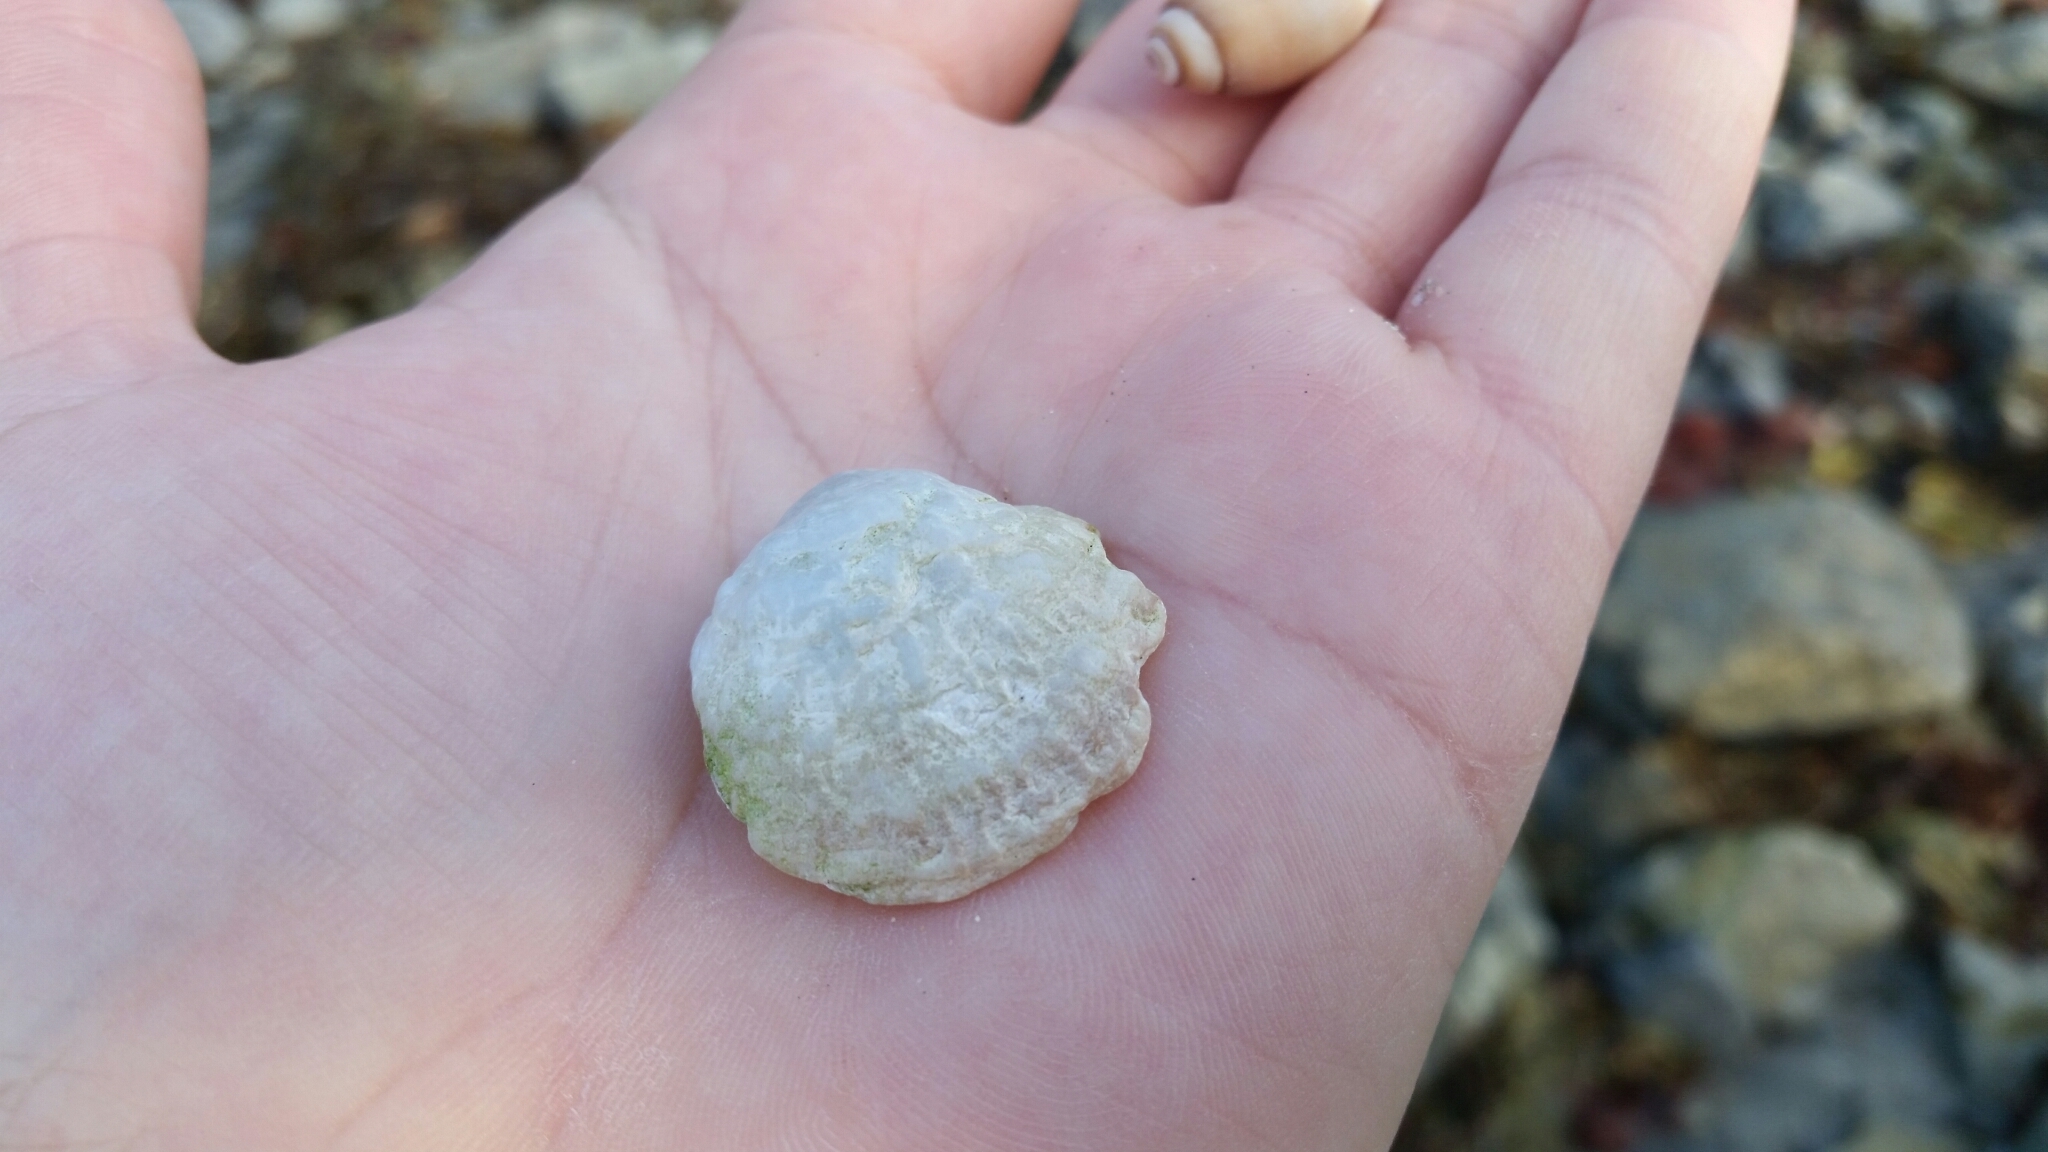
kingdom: Animalia
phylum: Mollusca
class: Bivalvia
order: Pectinida
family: Anomiidae
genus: Pododesmus
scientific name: Pododesmus macrochisma
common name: Alaska jingle
